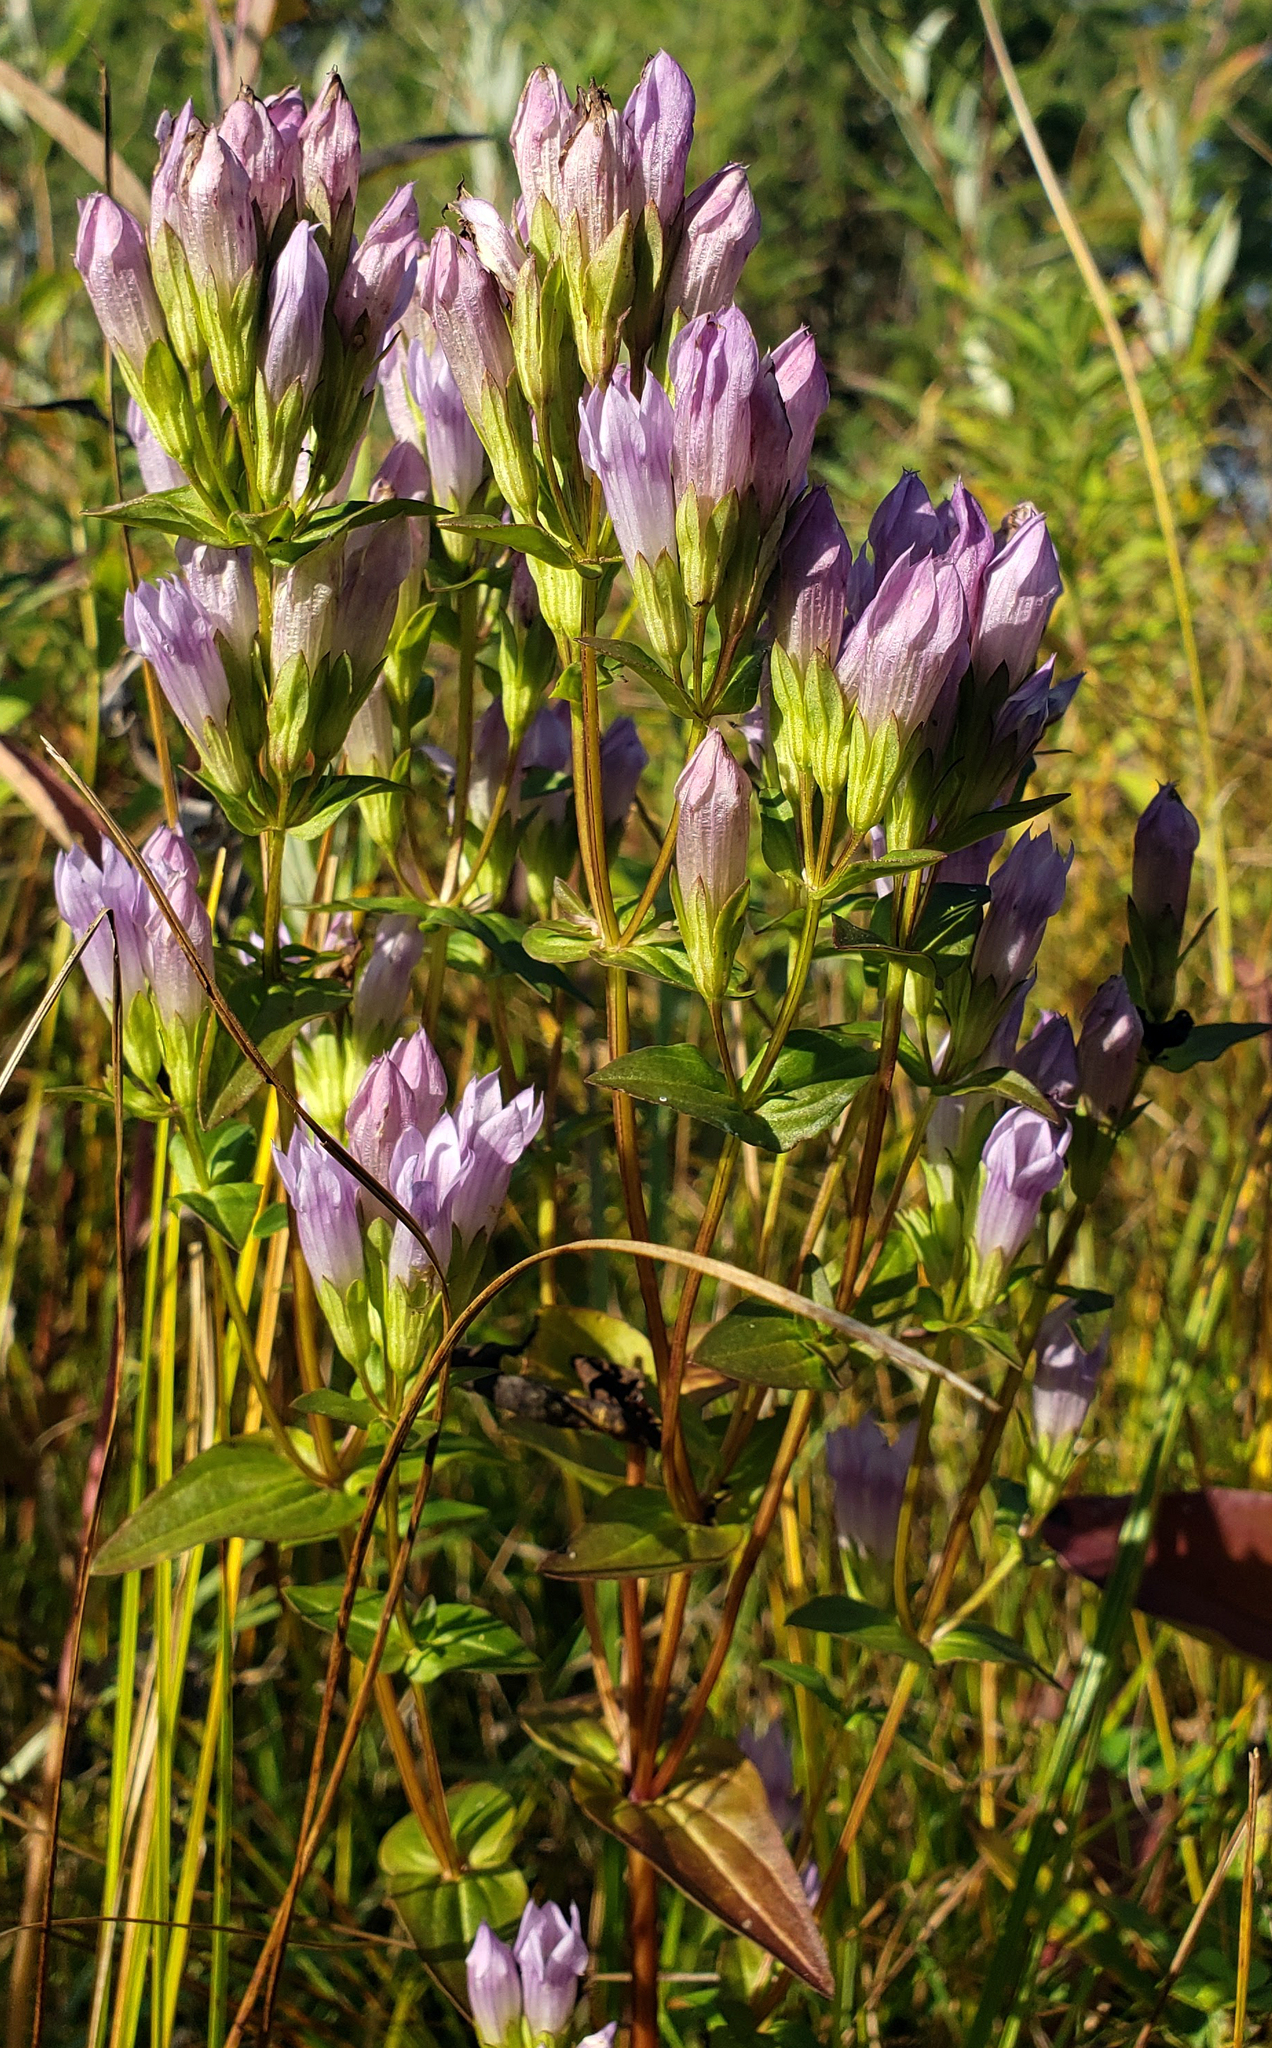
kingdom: Plantae
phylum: Tracheophyta
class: Magnoliopsida
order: Gentianales
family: Gentianaceae
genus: Gentianella
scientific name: Gentianella quinquefolia
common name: Agueweed
